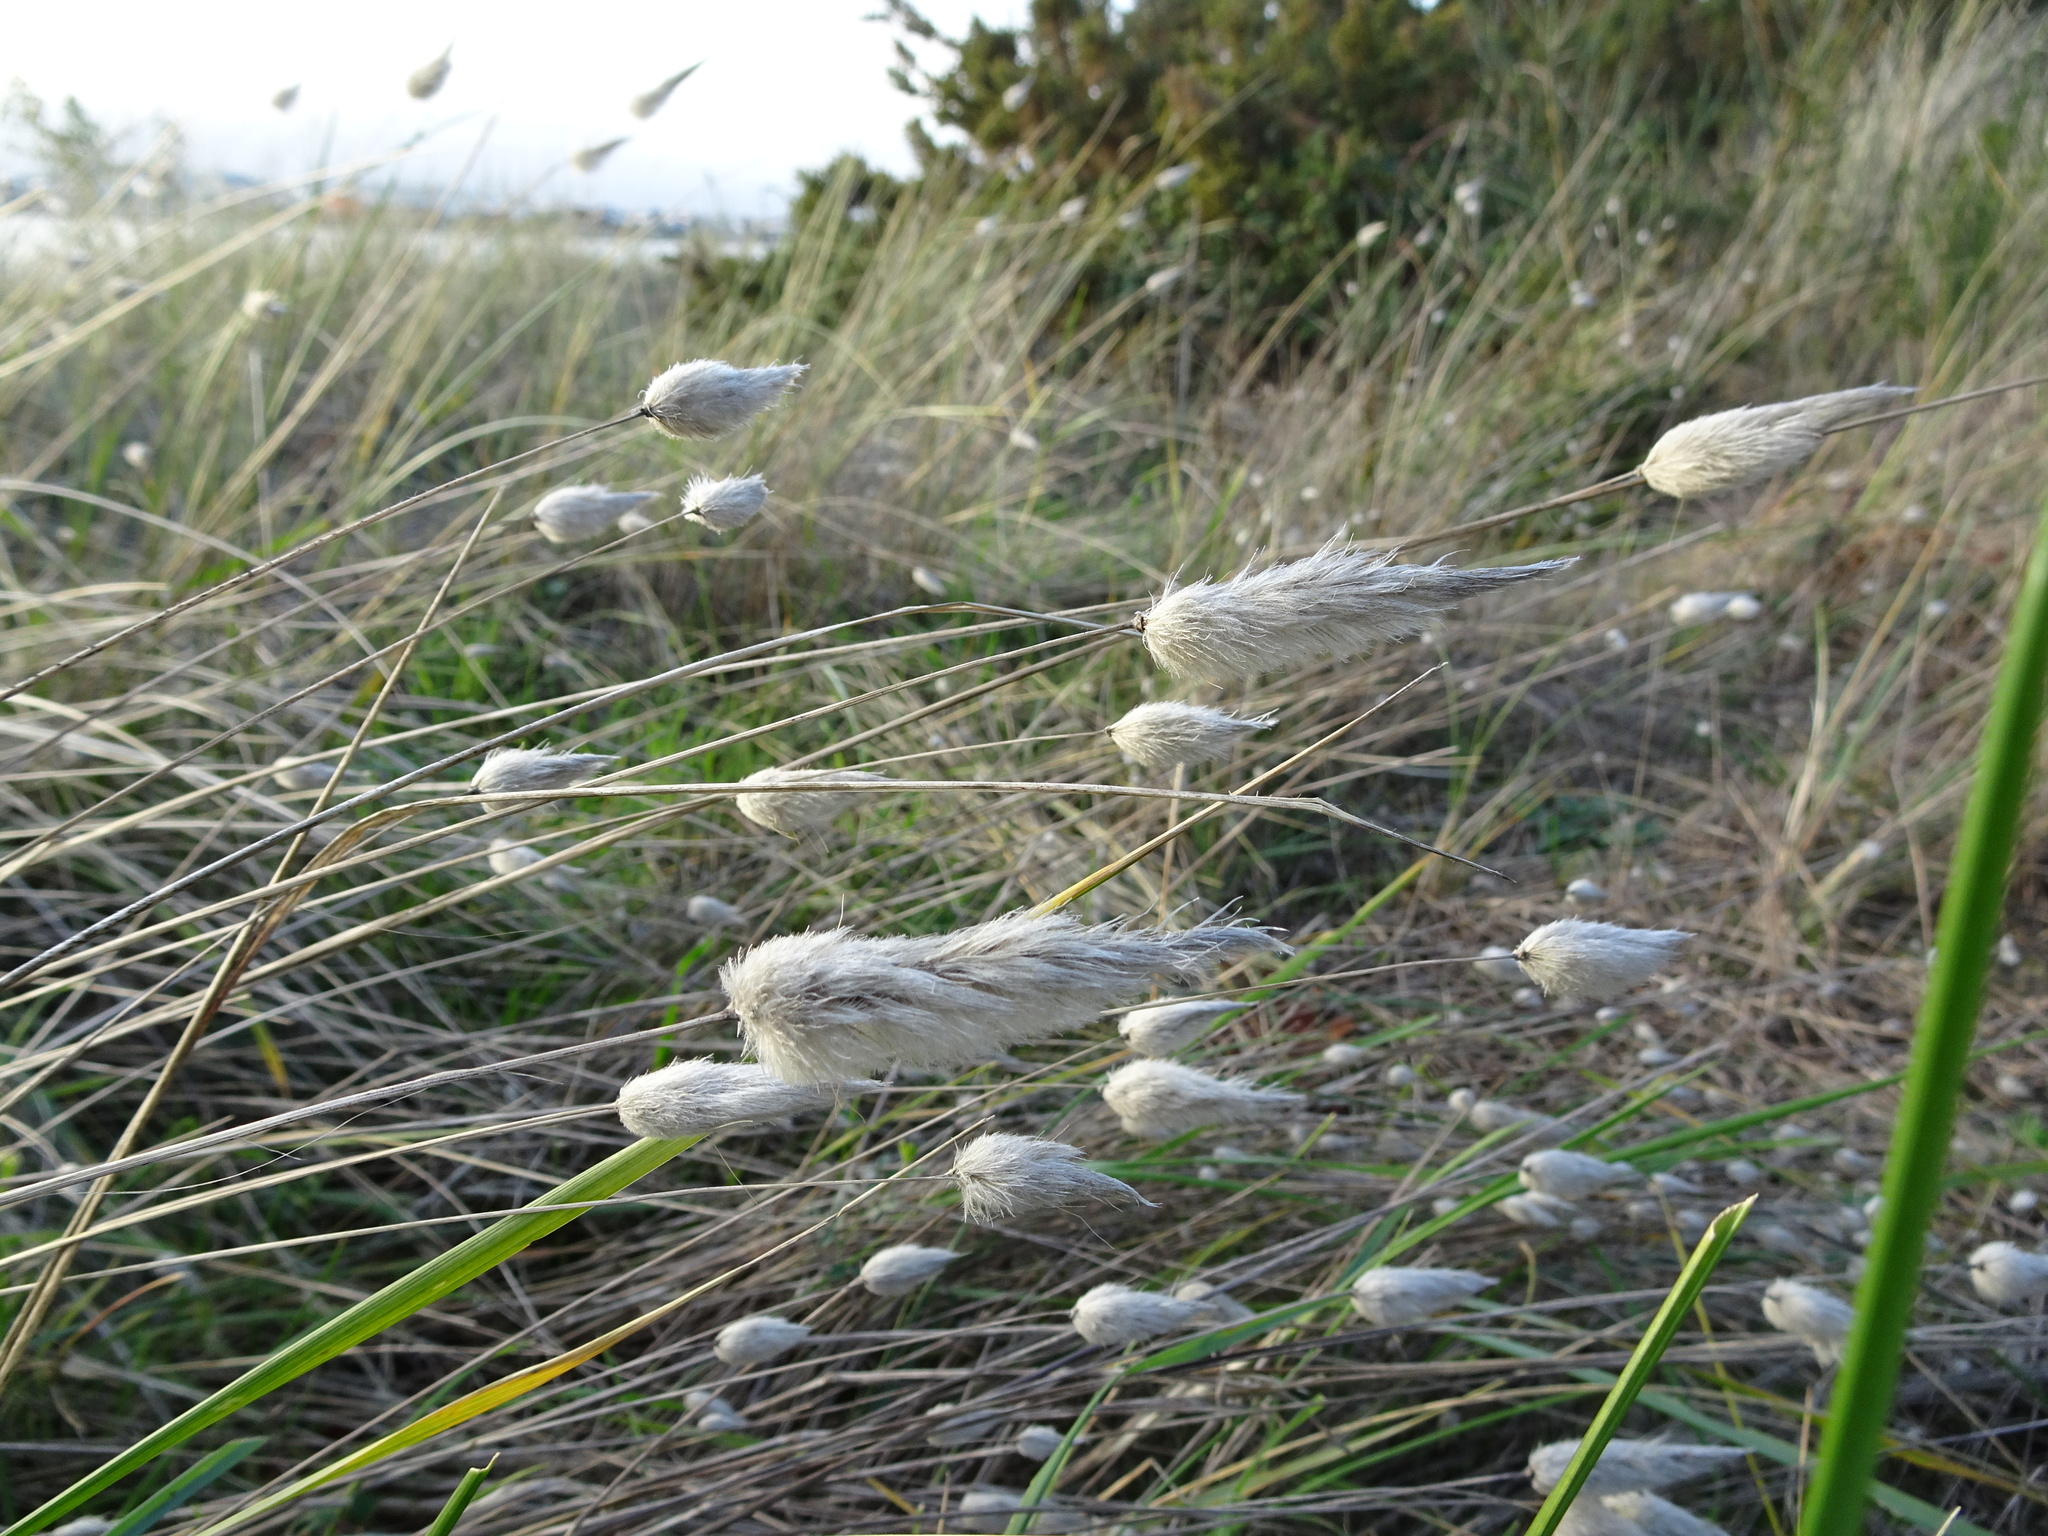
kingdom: Plantae
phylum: Tracheophyta
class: Liliopsida
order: Poales
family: Poaceae
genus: Lagurus
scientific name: Lagurus ovatus
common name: Hare's-tail
